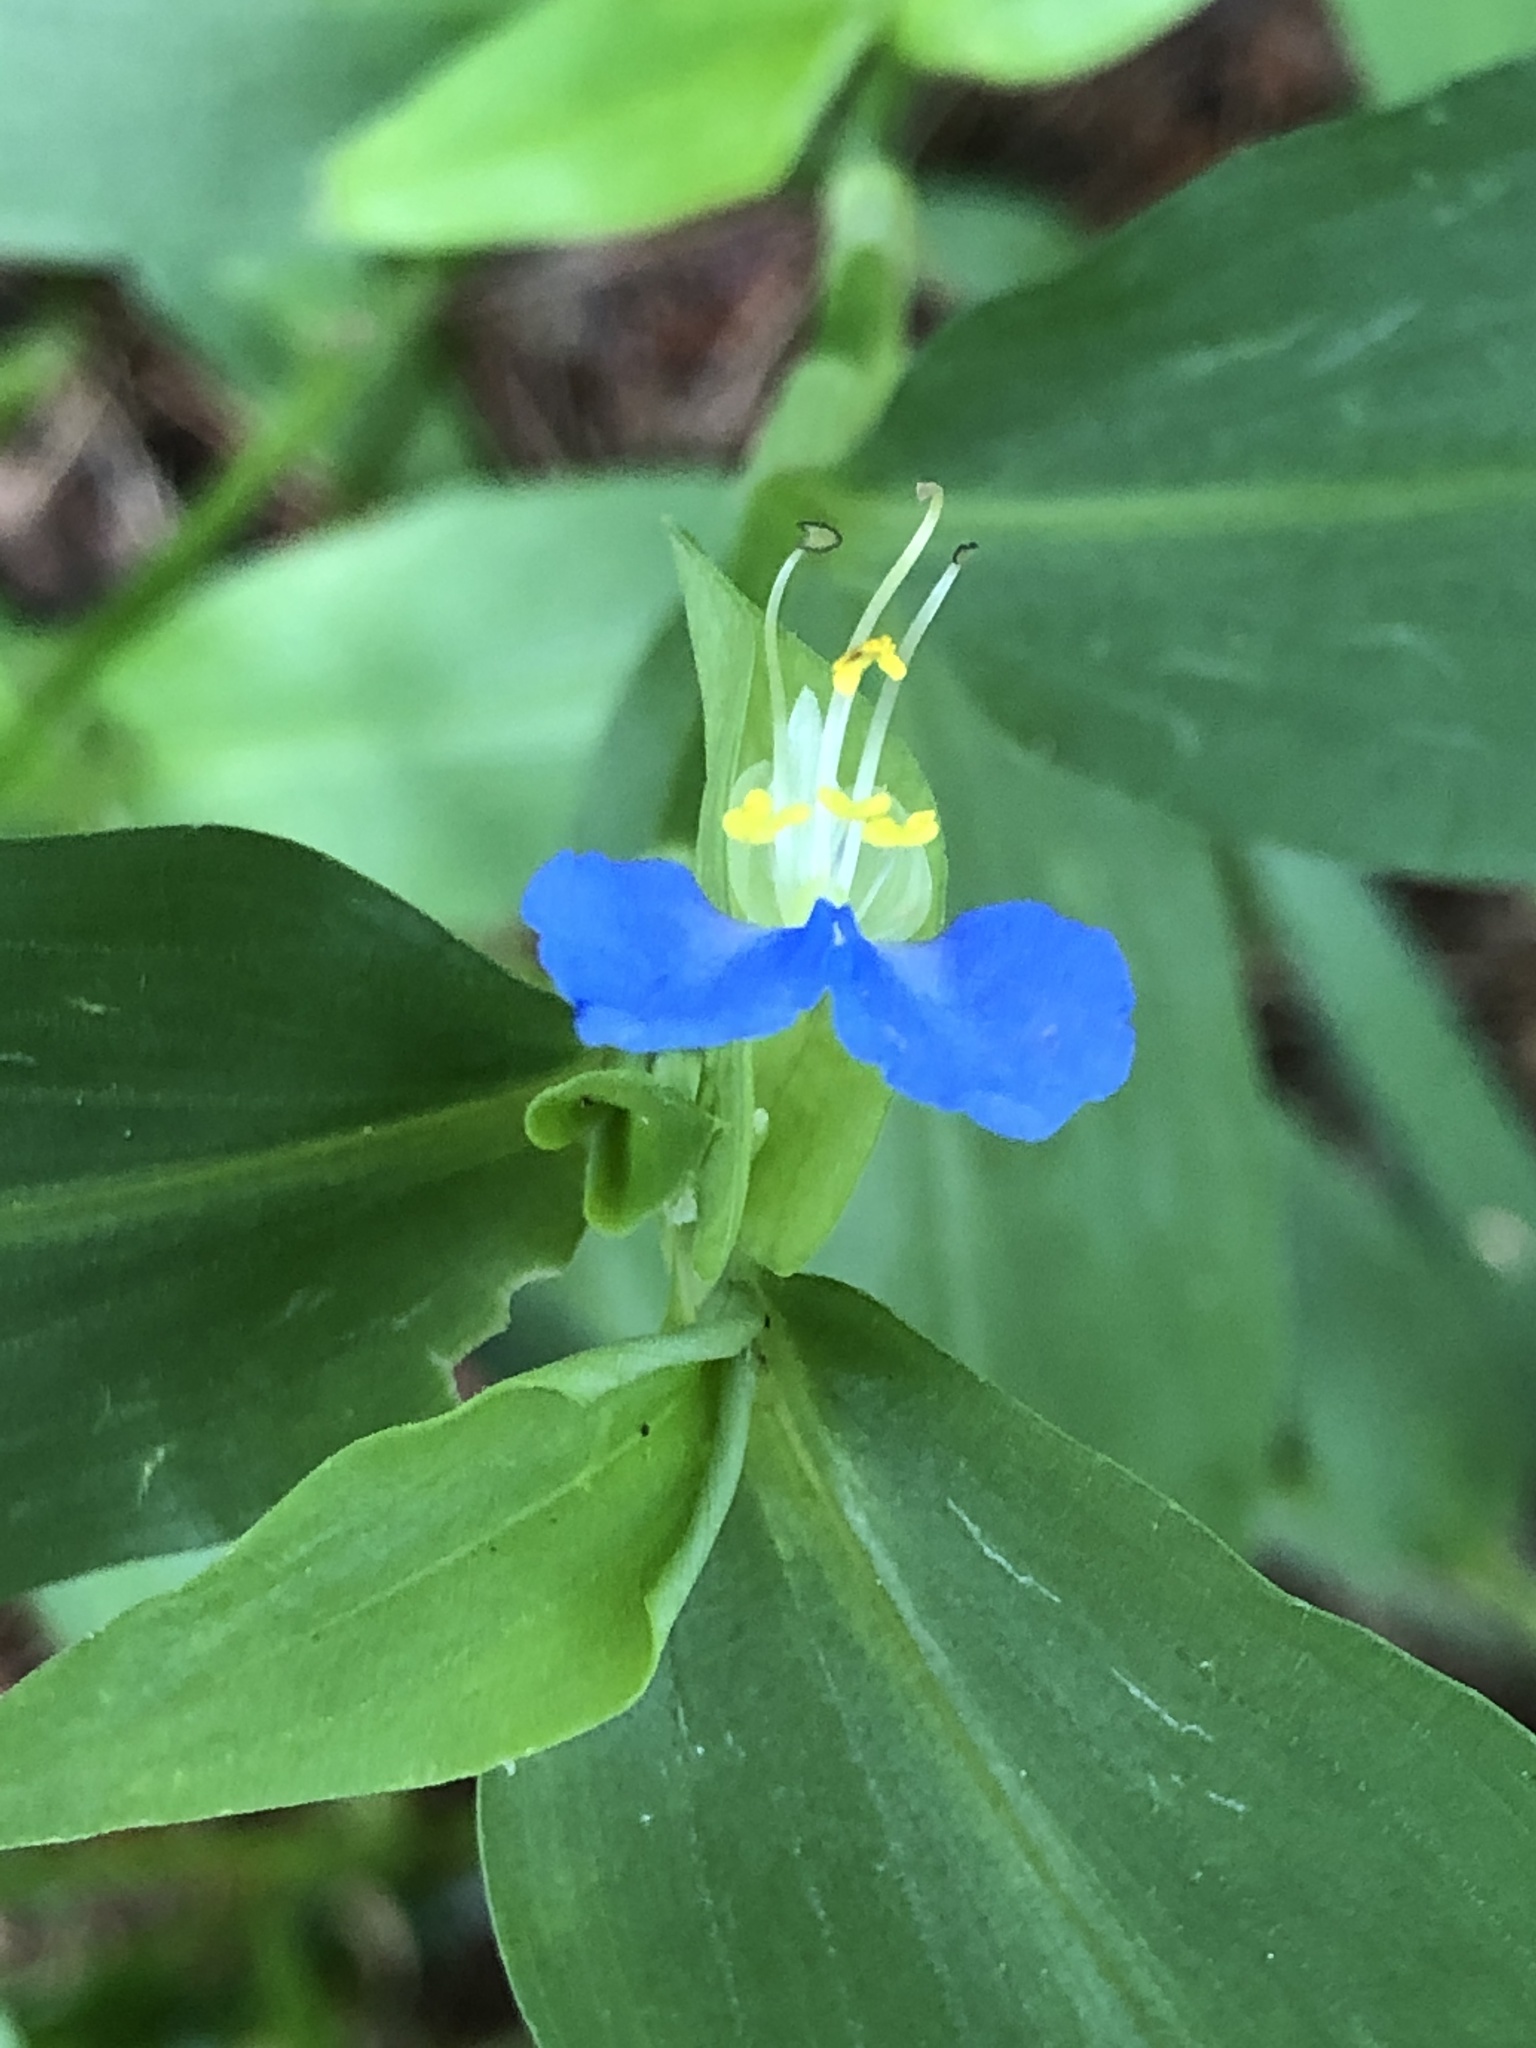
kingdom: Plantae
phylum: Tracheophyta
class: Liliopsida
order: Commelinales
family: Commelinaceae
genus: Commelina
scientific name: Commelina communis
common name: Asiatic dayflower
